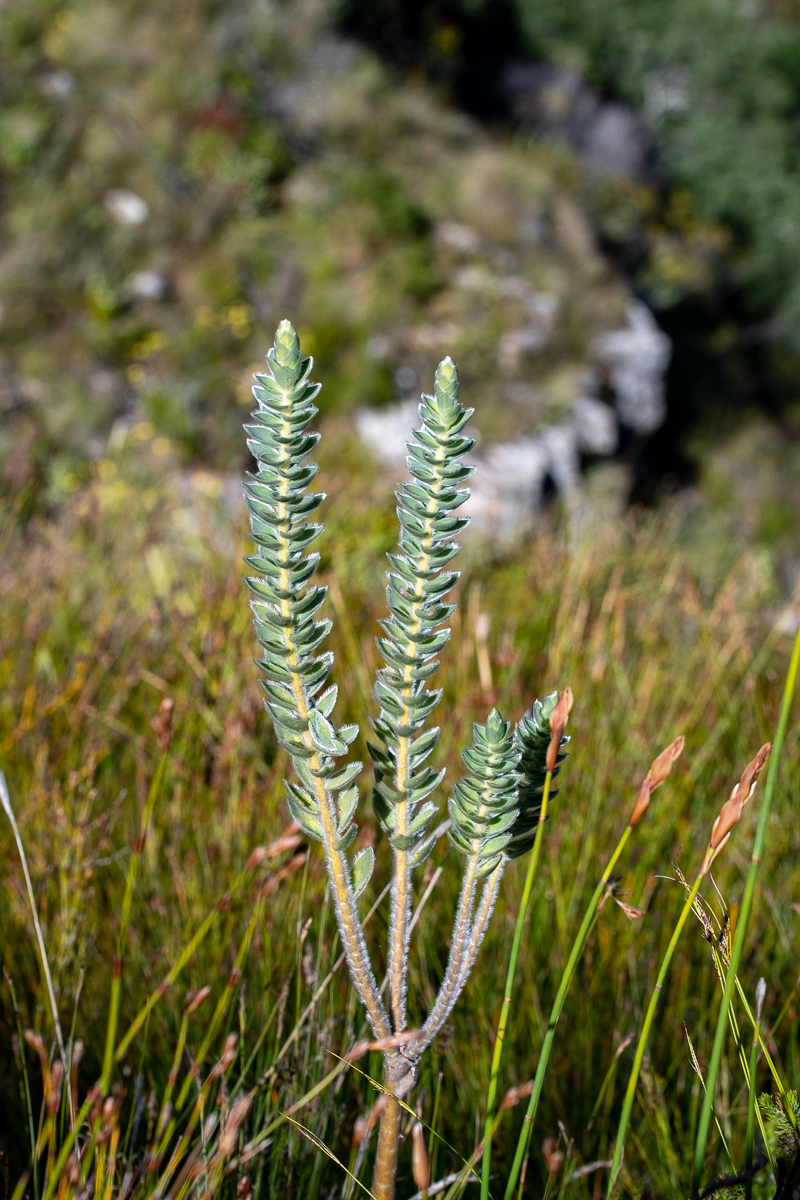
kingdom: Plantae
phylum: Tracheophyta
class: Magnoliopsida
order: Fabales
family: Fabaceae
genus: Liparia
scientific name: Liparia vestita
